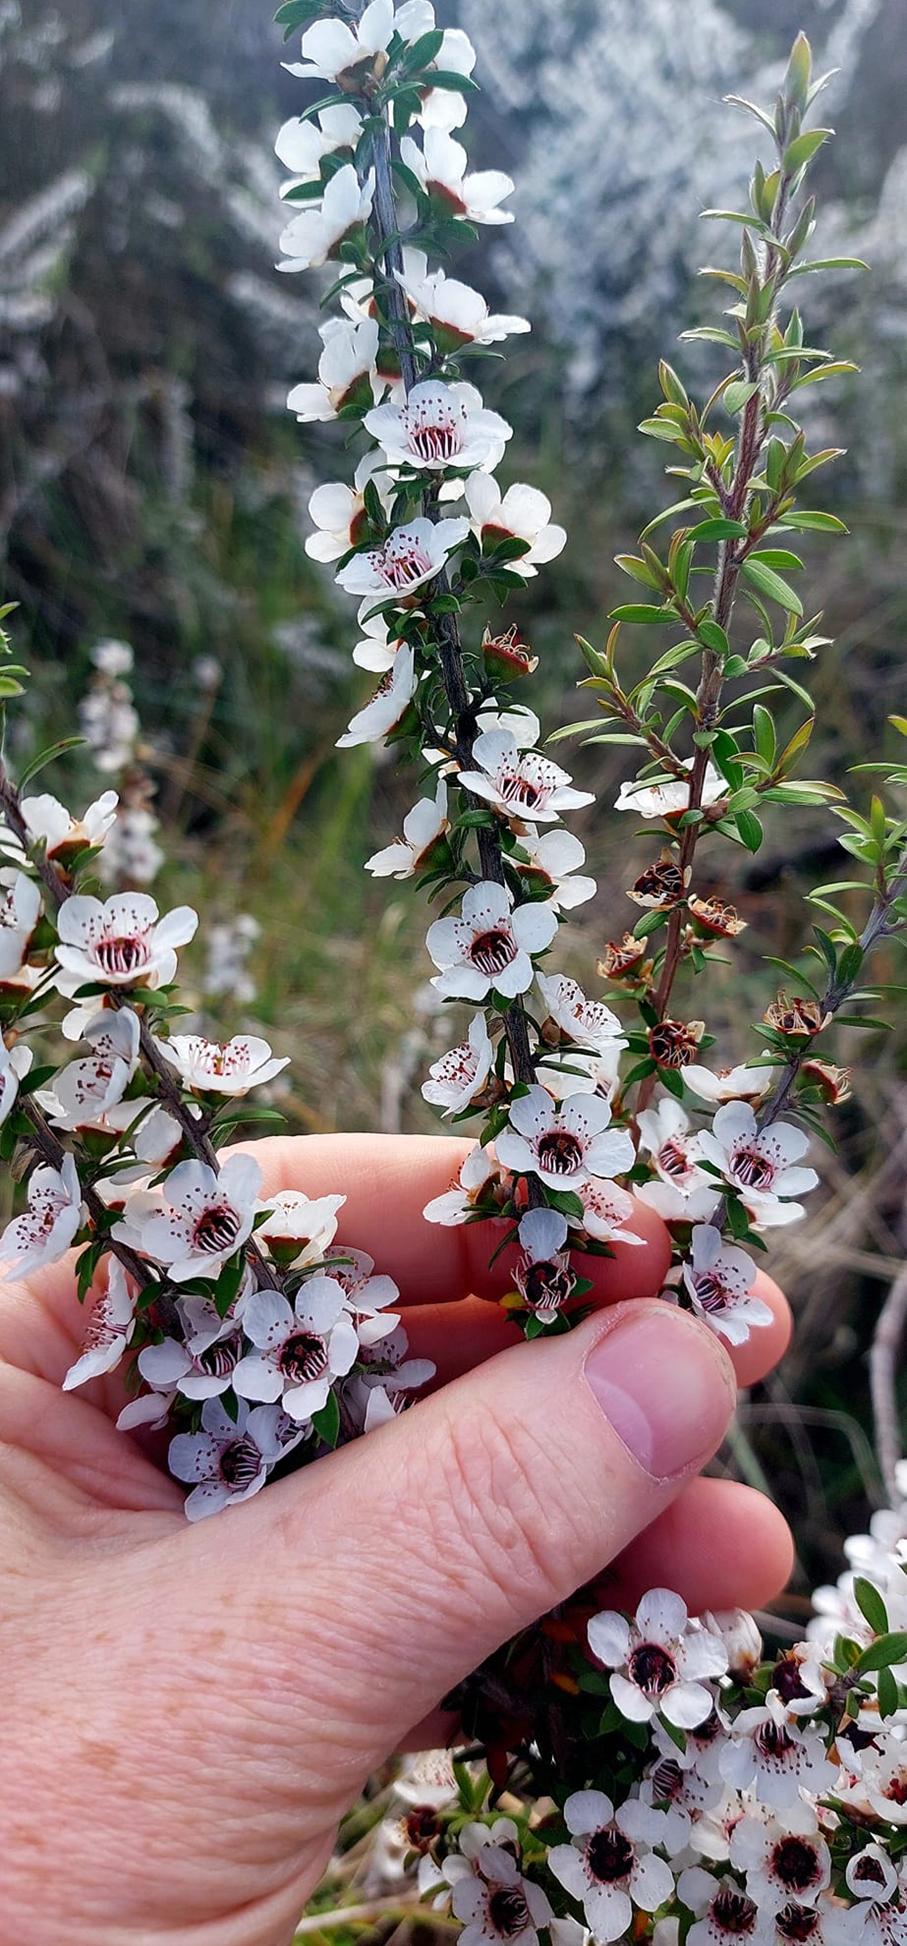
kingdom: Plantae
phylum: Tracheophyta
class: Magnoliopsida
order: Myrtales
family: Myrtaceae
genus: Leptospermum
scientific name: Leptospermum scoparium
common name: Broom tea-tree
